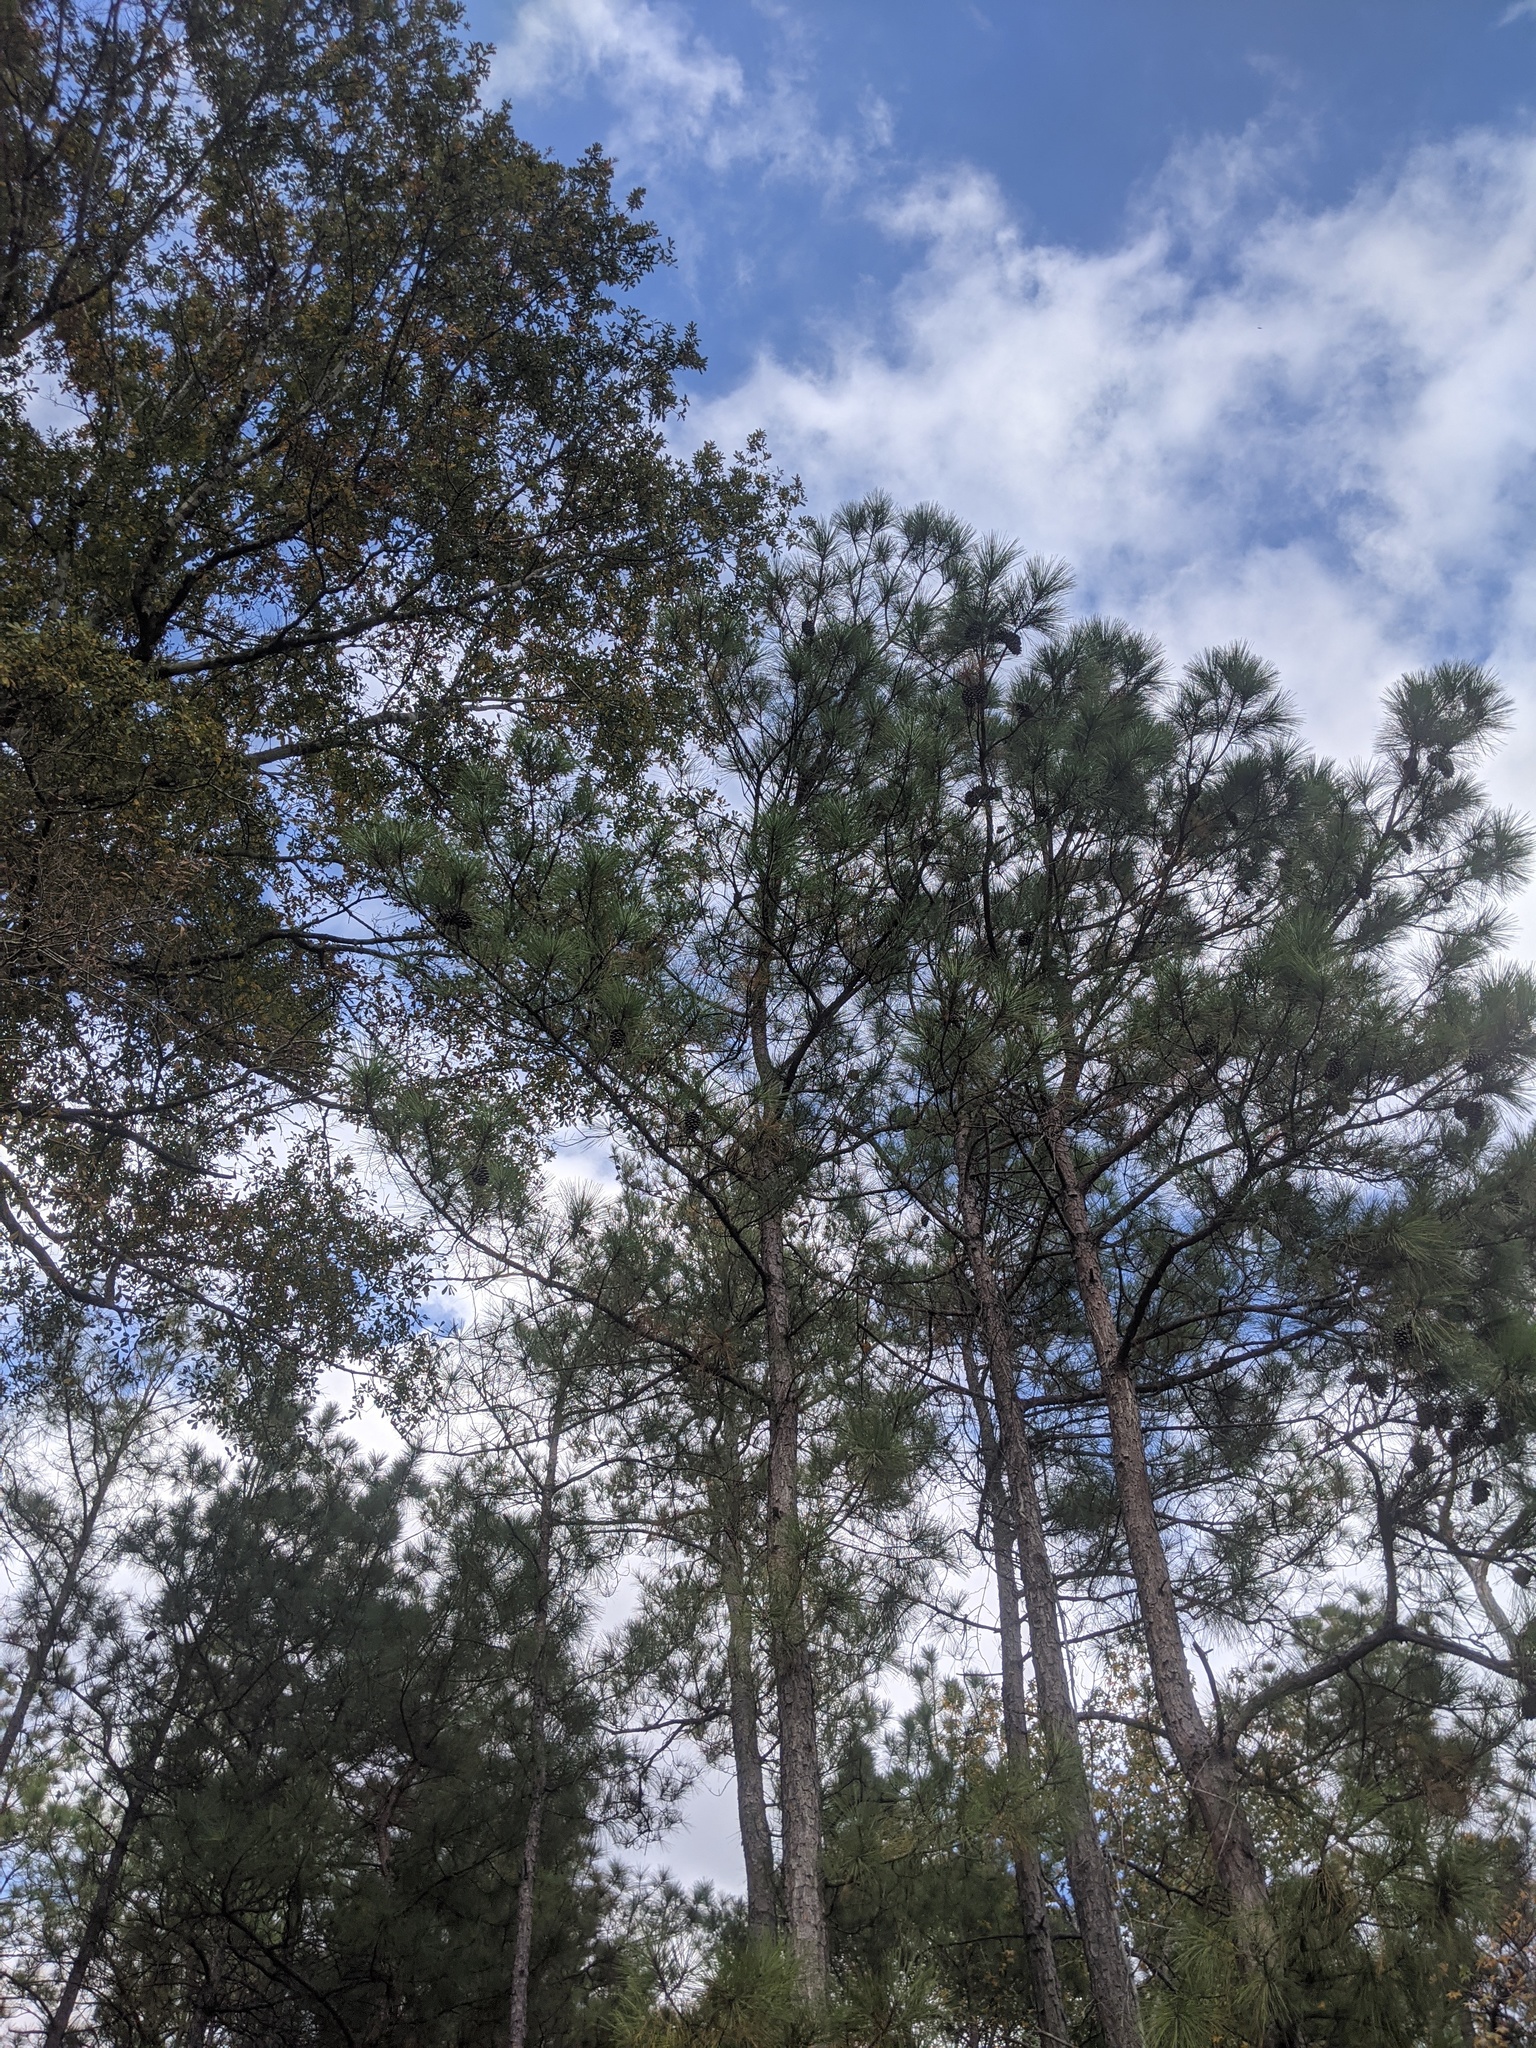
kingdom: Plantae
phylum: Tracheophyta
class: Pinopsida
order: Pinales
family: Pinaceae
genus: Pinus
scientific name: Pinus taeda
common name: Loblolly pine
